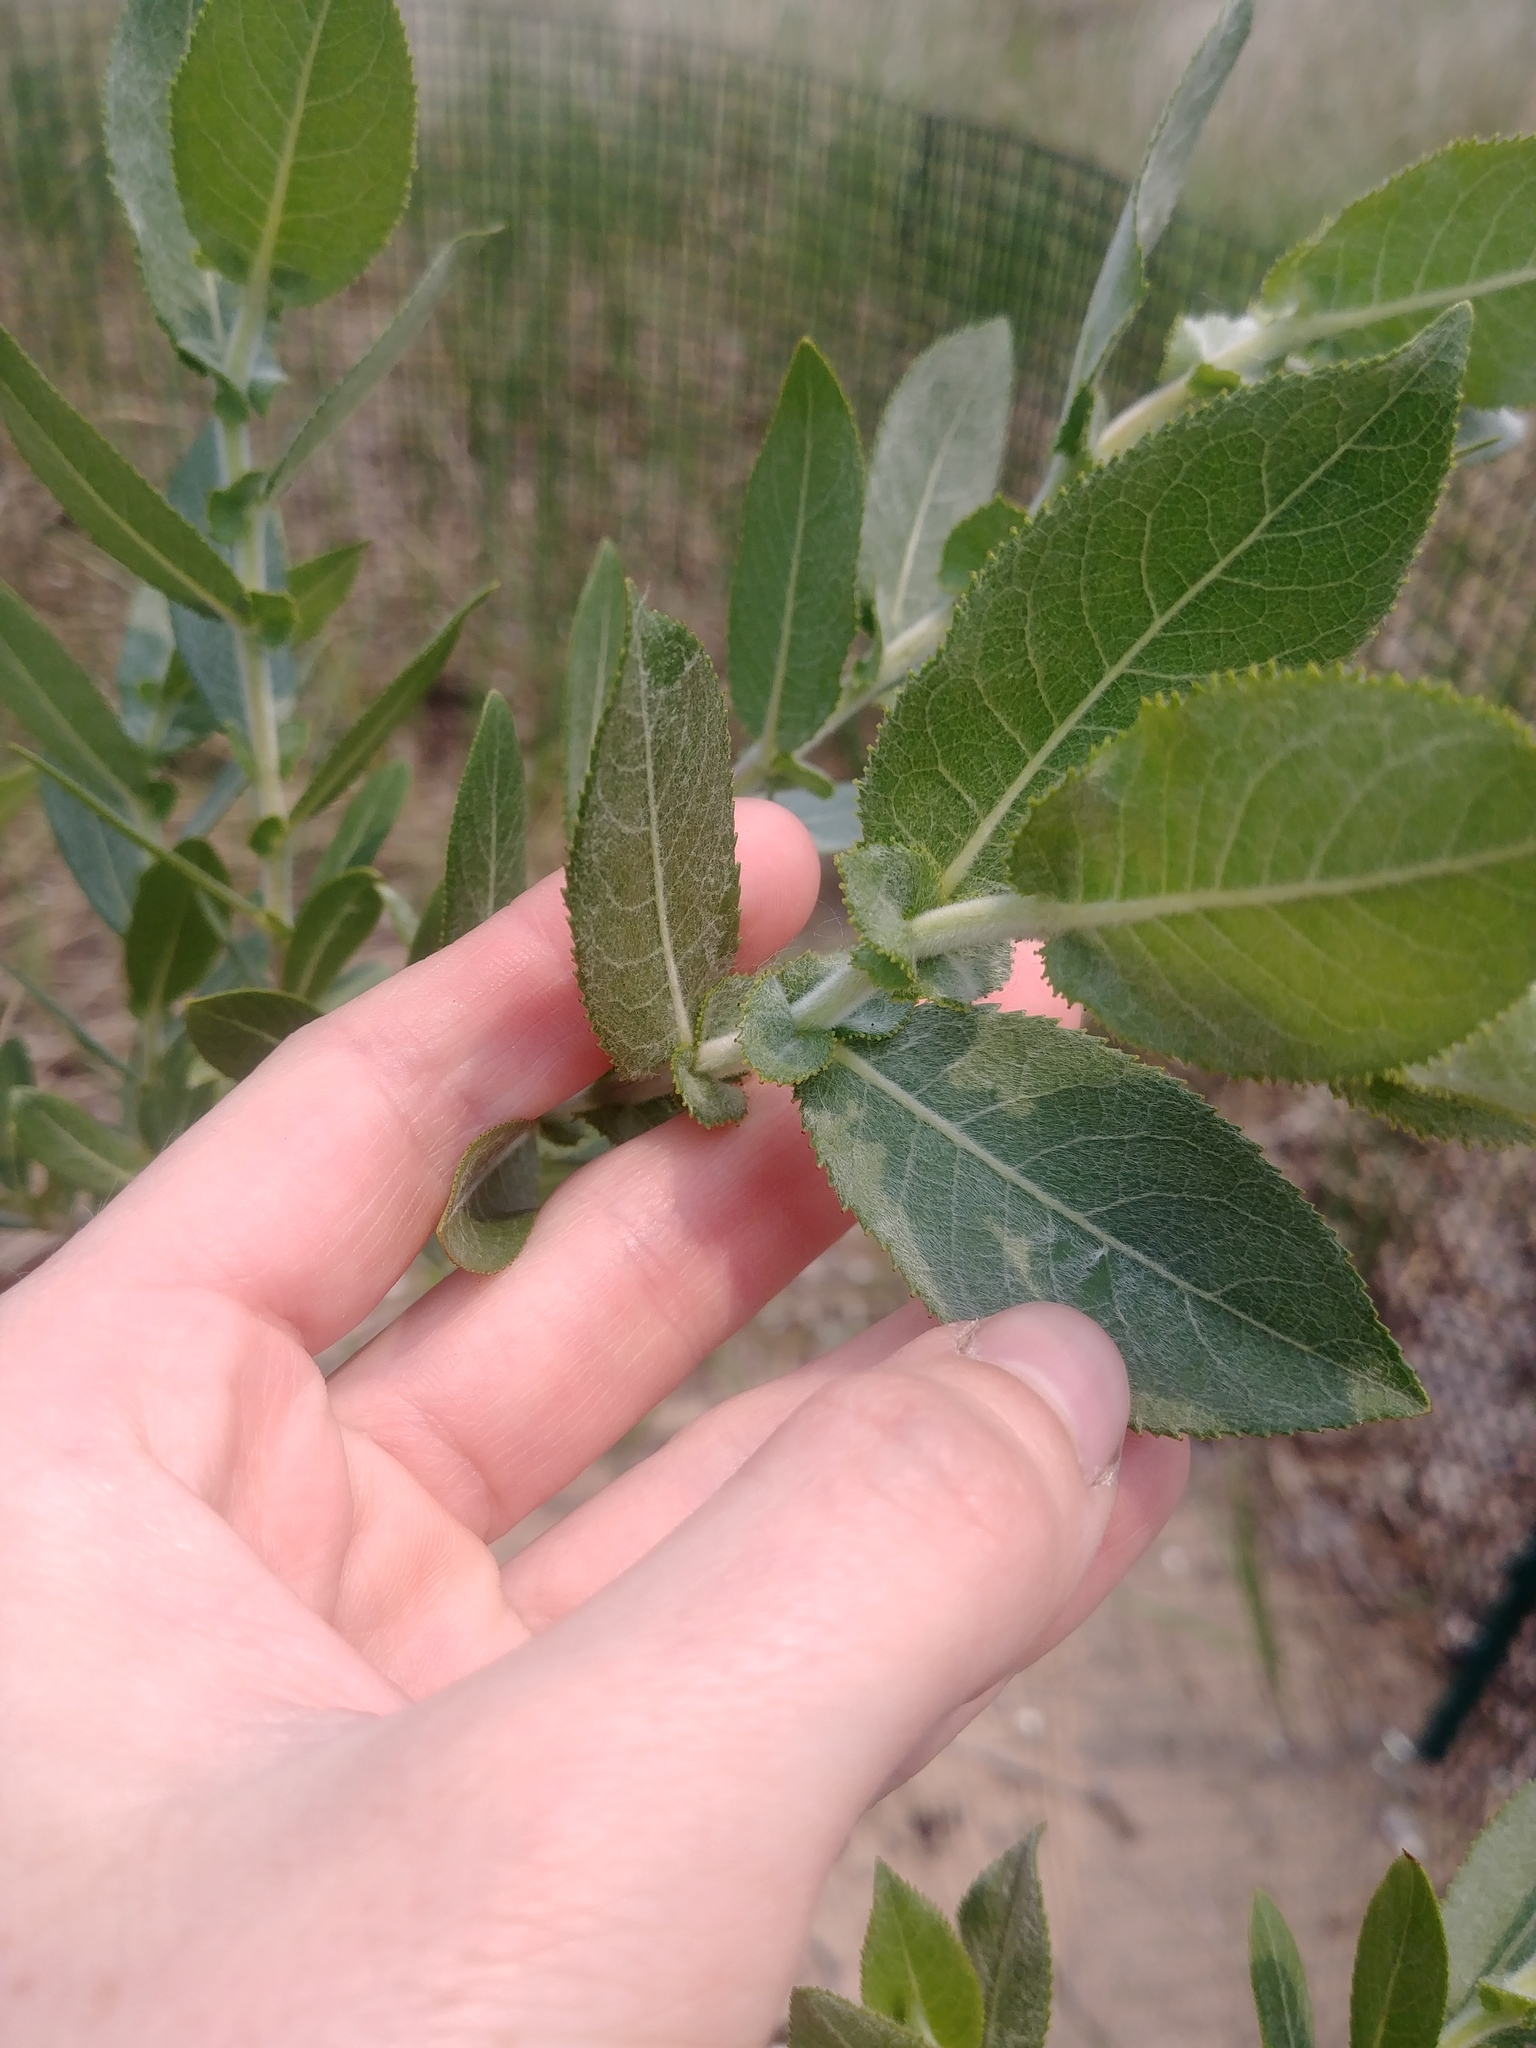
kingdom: Plantae
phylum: Tracheophyta
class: Magnoliopsida
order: Malpighiales
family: Salicaceae
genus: Salix
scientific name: Salix cordata
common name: Heart-leaf willow
